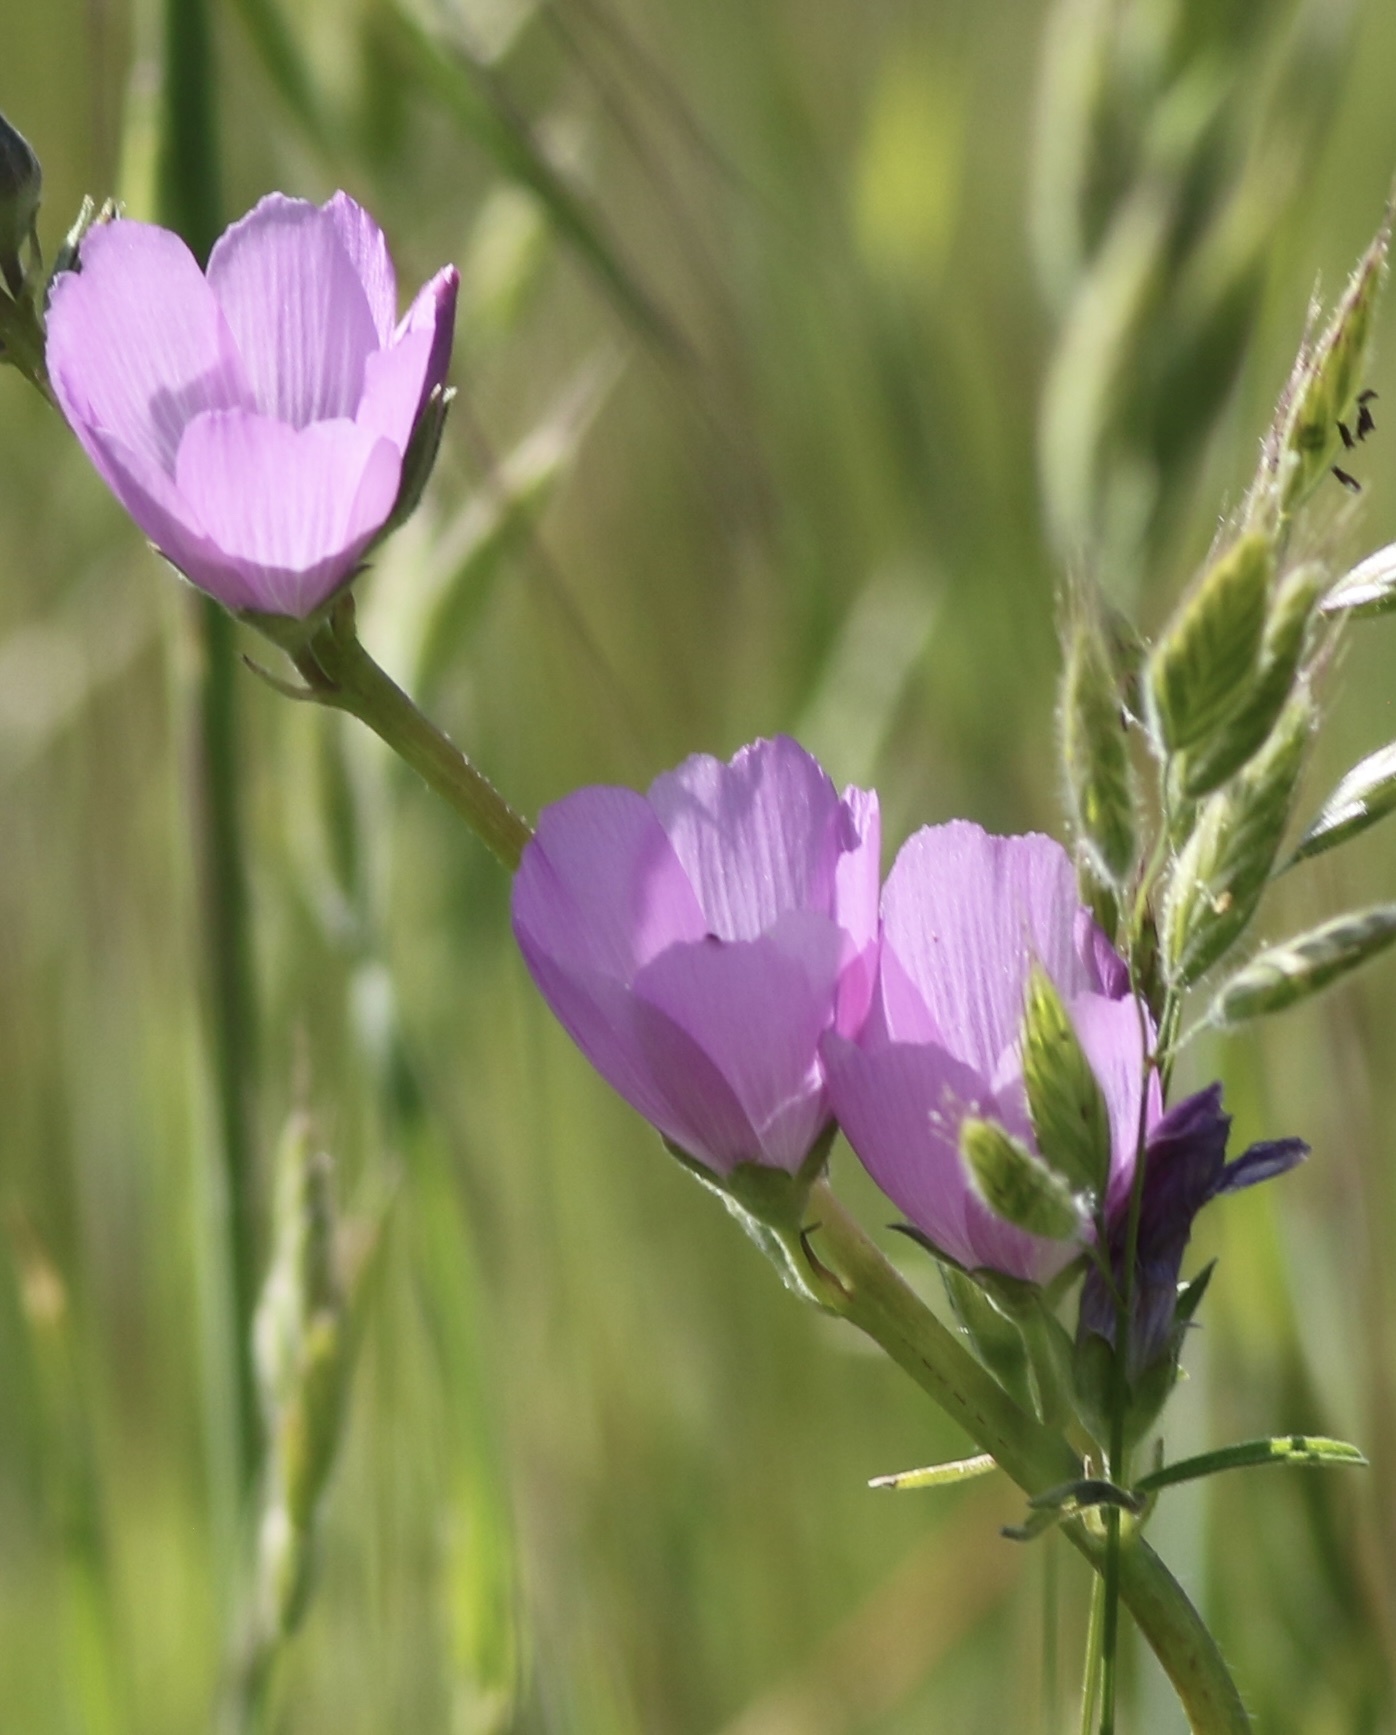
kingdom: Plantae
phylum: Tracheophyta
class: Magnoliopsida
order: Malvales
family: Malvaceae
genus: Sidalcea
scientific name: Sidalcea sparsifolia
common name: Southern checkerbloom
